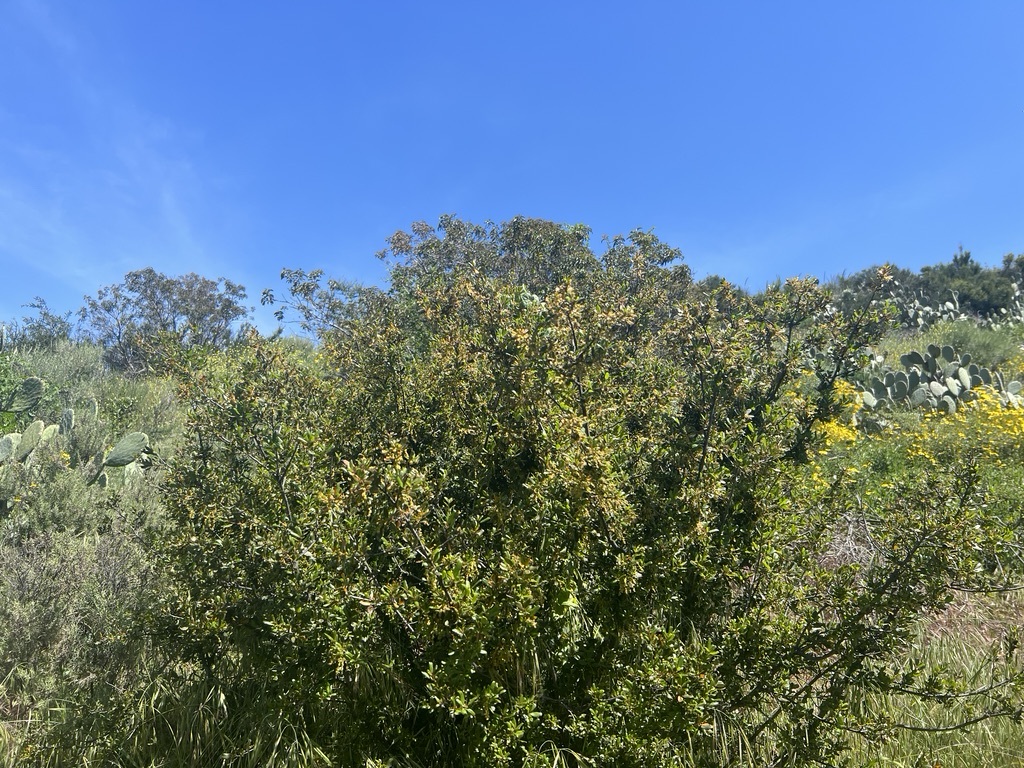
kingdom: Plantae
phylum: Tracheophyta
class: Magnoliopsida
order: Fagales
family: Fagaceae
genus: Quercus
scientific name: Quercus berberidifolia
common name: California scrub oak
